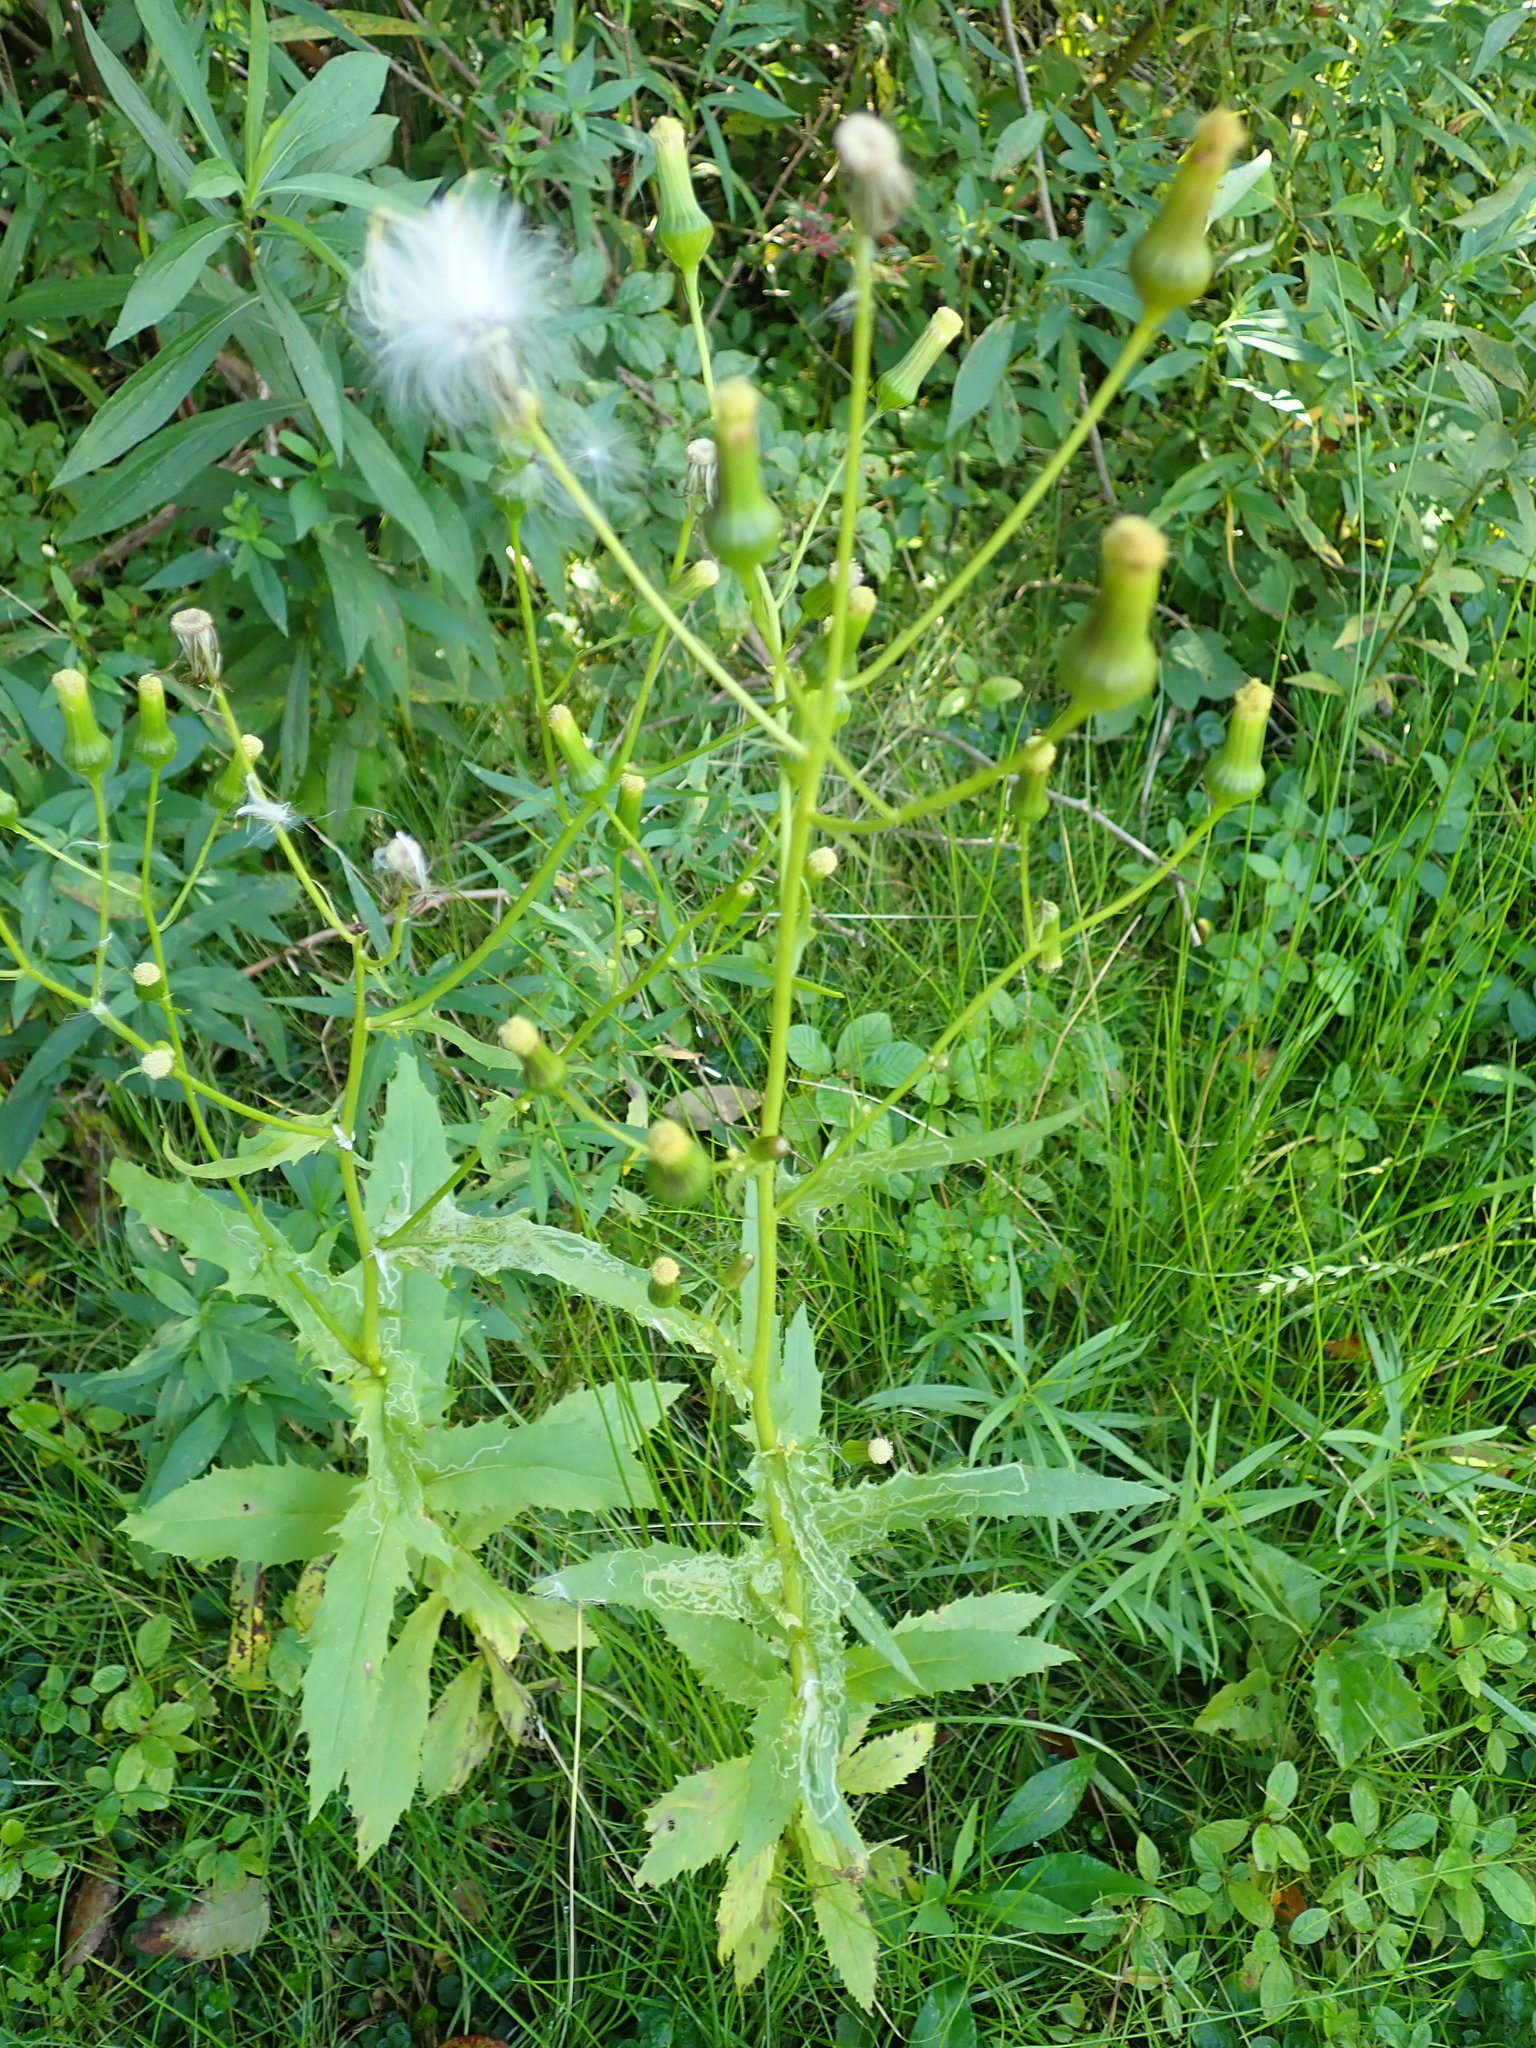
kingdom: Plantae
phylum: Tracheophyta
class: Magnoliopsida
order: Asterales
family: Asteraceae
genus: Erechtites
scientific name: Erechtites hieraciifolius
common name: American burnweed
